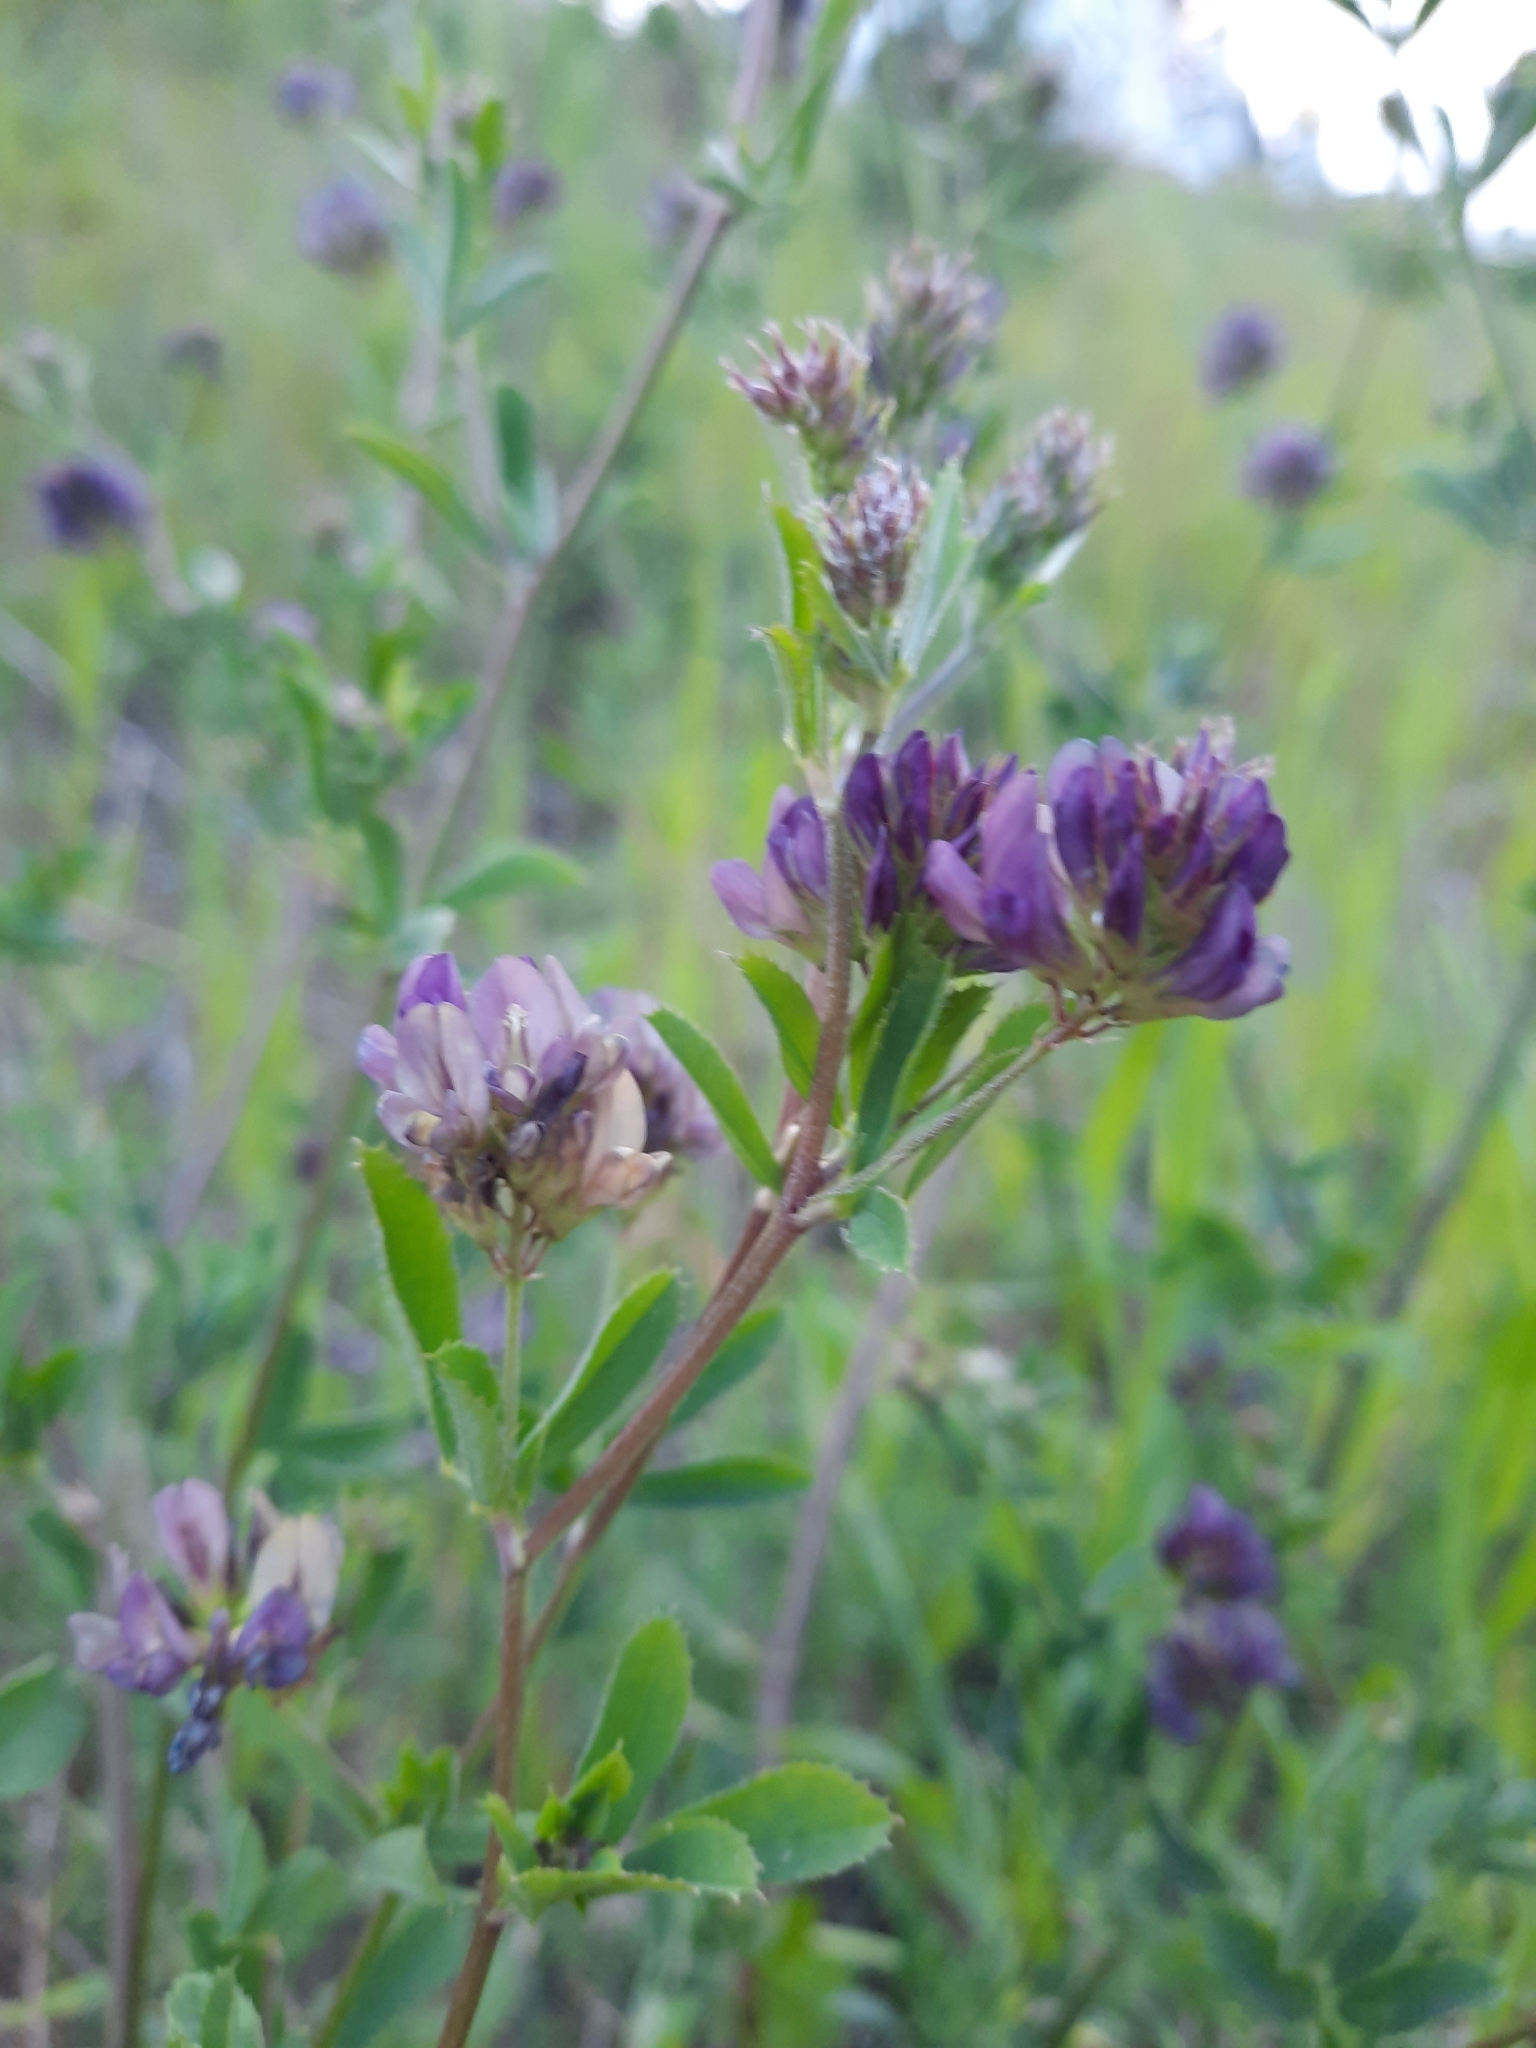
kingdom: Plantae
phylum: Tracheophyta
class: Magnoliopsida
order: Fabales
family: Fabaceae
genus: Medicago
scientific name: Medicago sativa
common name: Alfalfa
